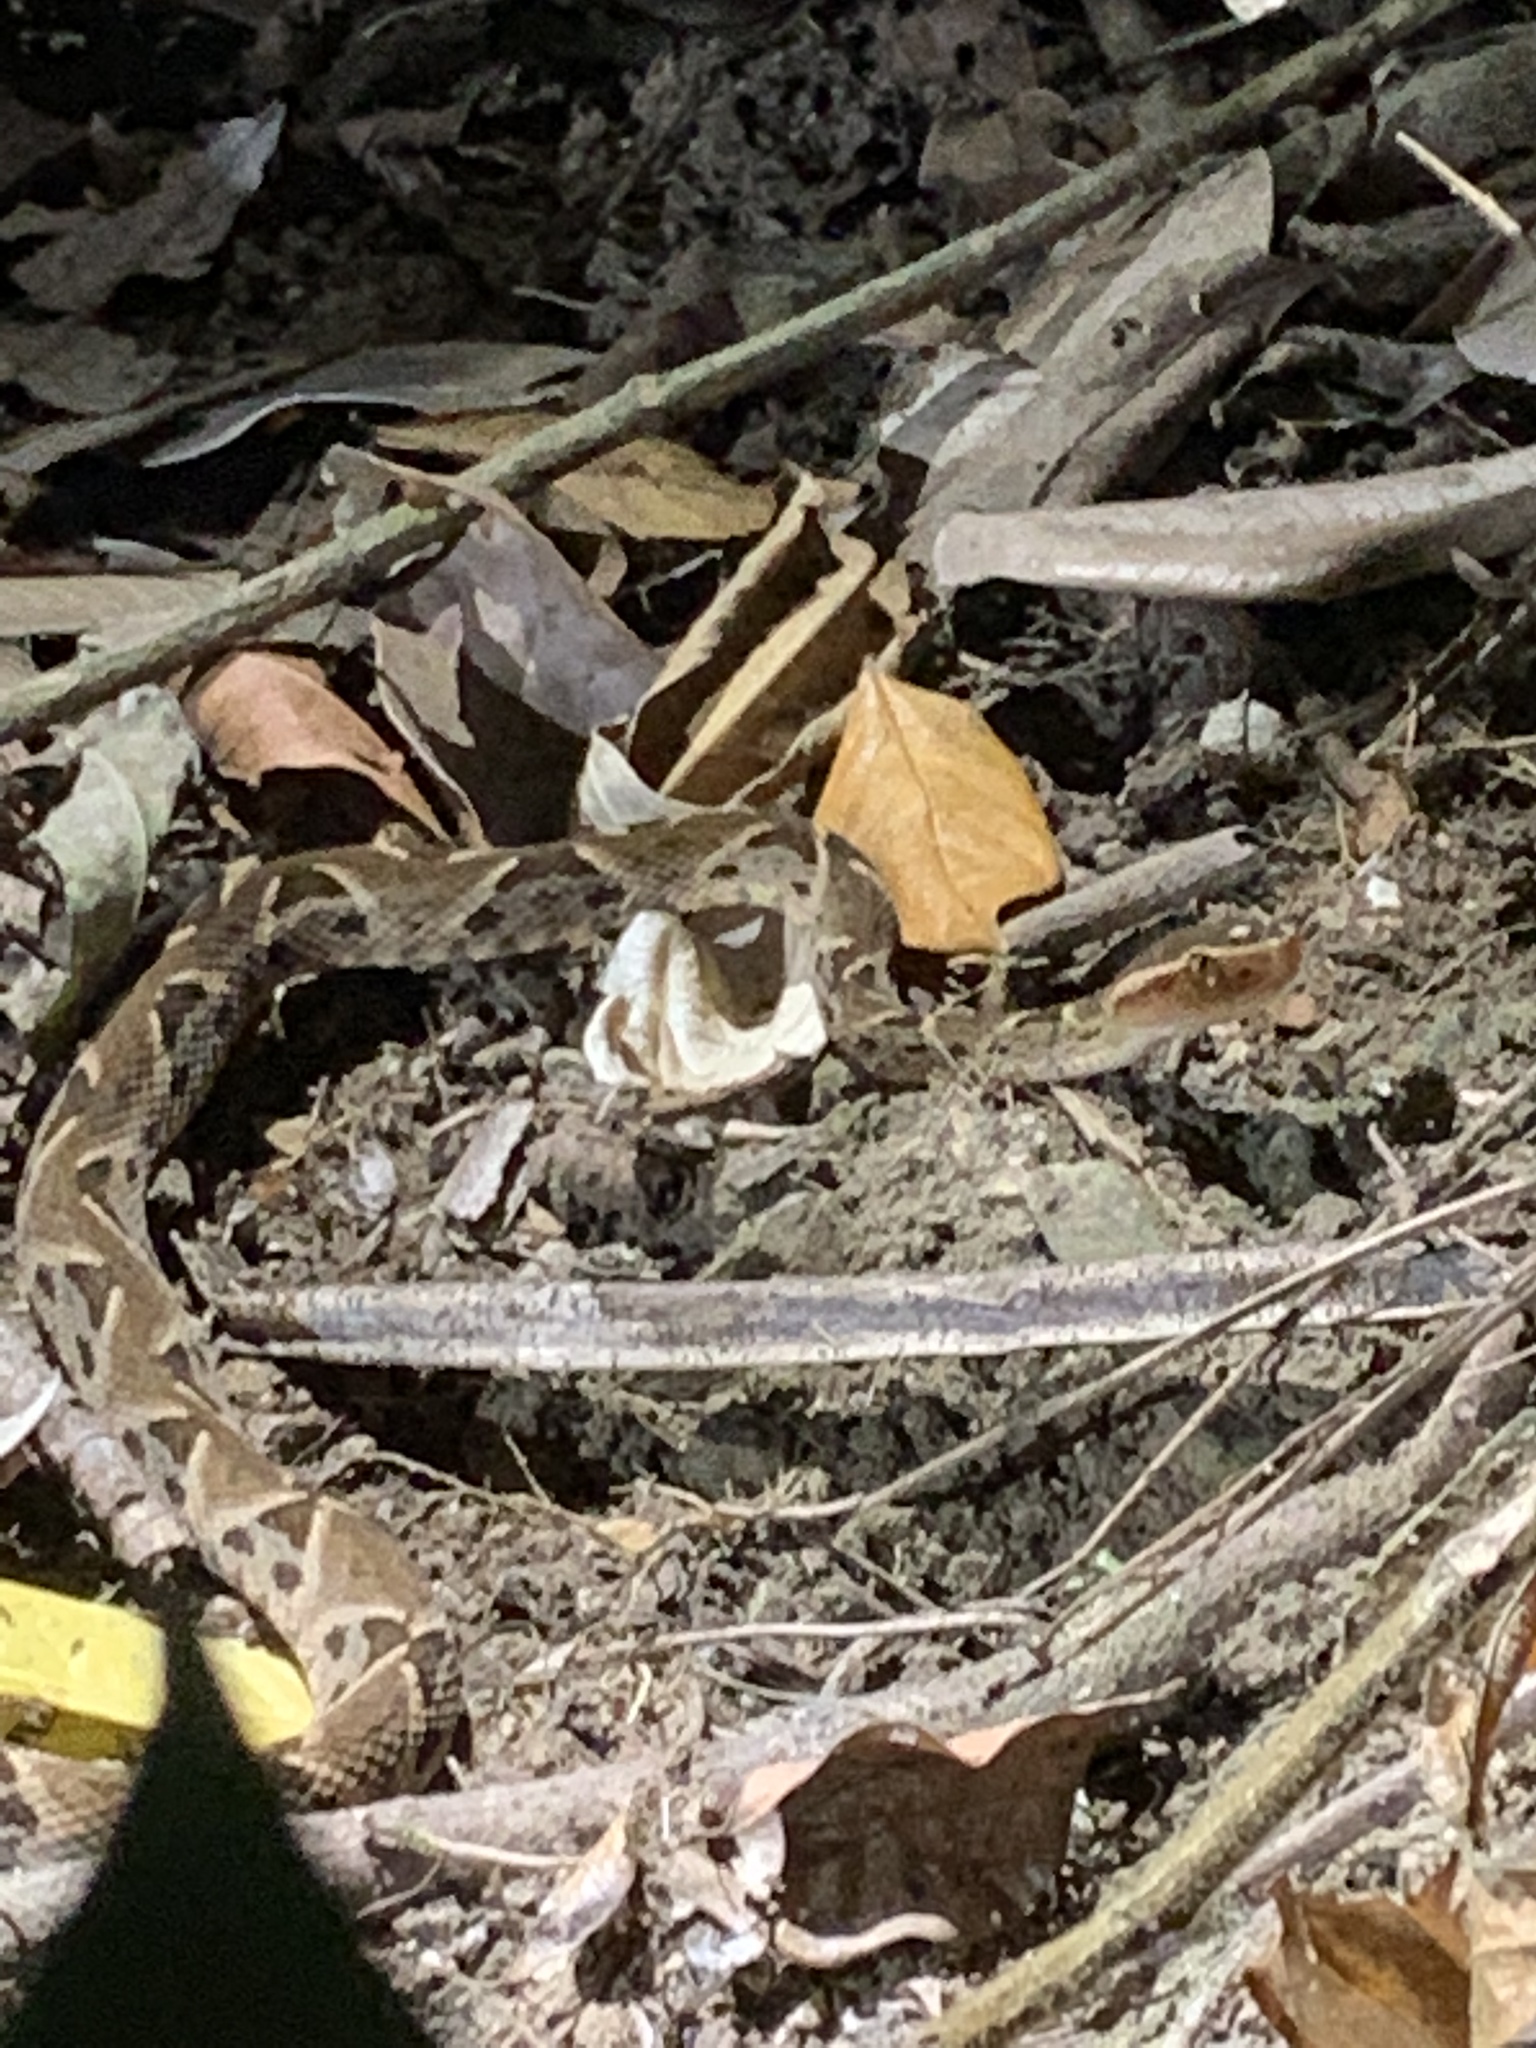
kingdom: Animalia
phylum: Chordata
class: Squamata
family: Viperidae
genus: Bothrops
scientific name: Bothrops asper
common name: Terciopelo
